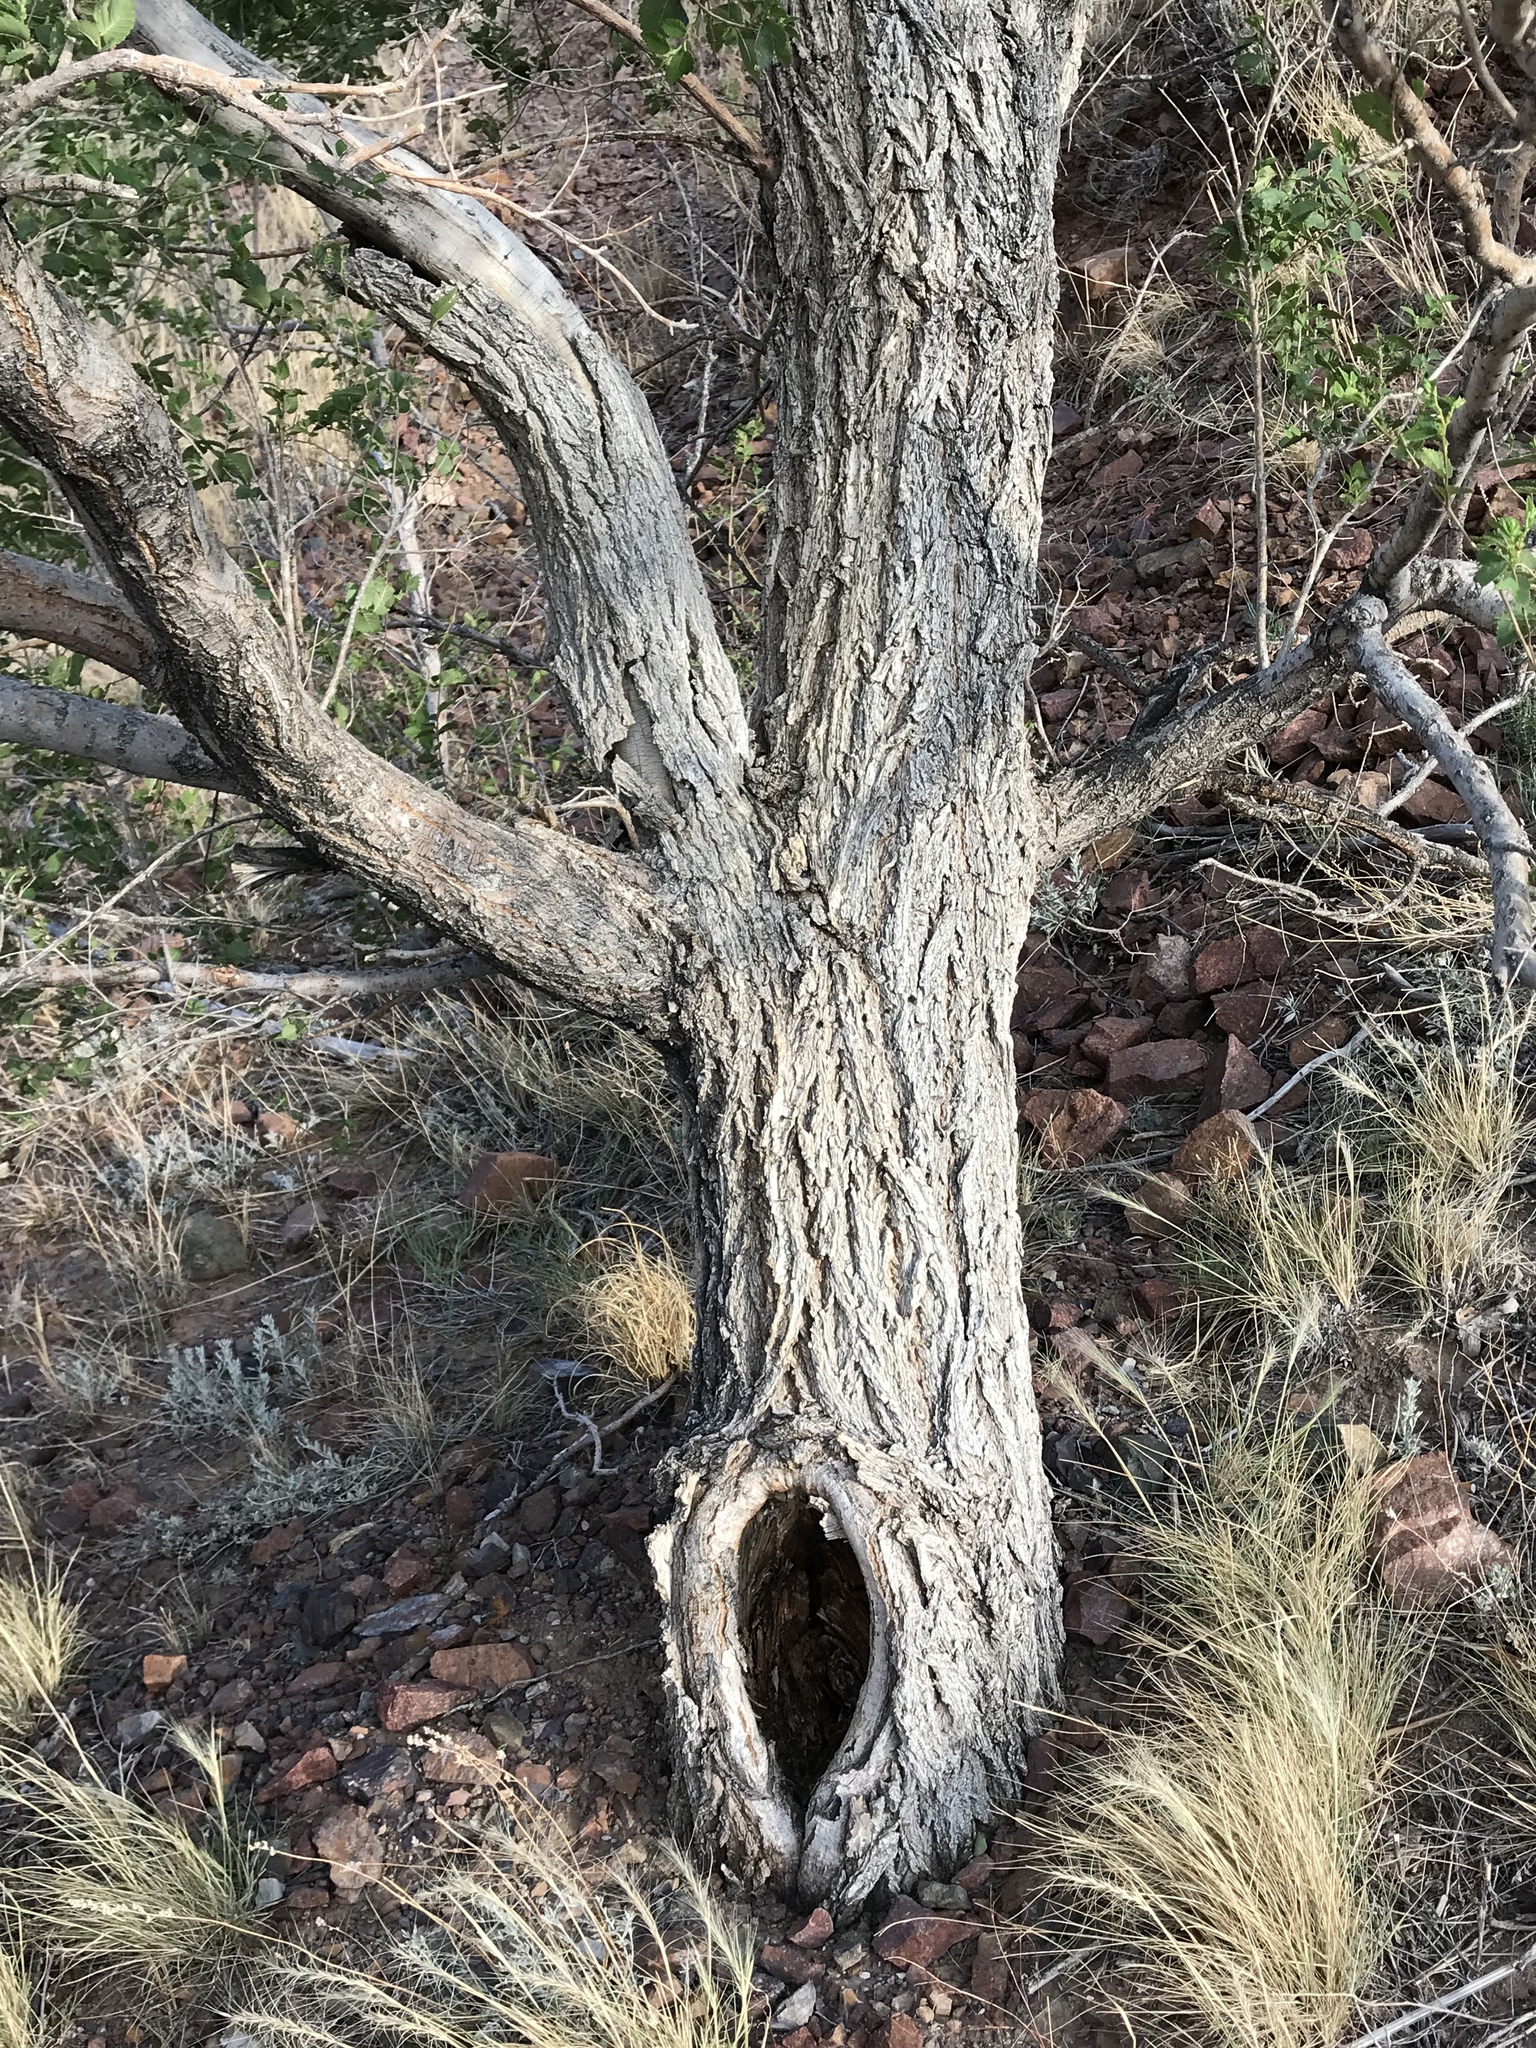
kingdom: Plantae
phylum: Tracheophyta
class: Magnoliopsida
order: Rosales
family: Ulmaceae
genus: Ulmus
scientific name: Ulmus pumila
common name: Siberian elm
